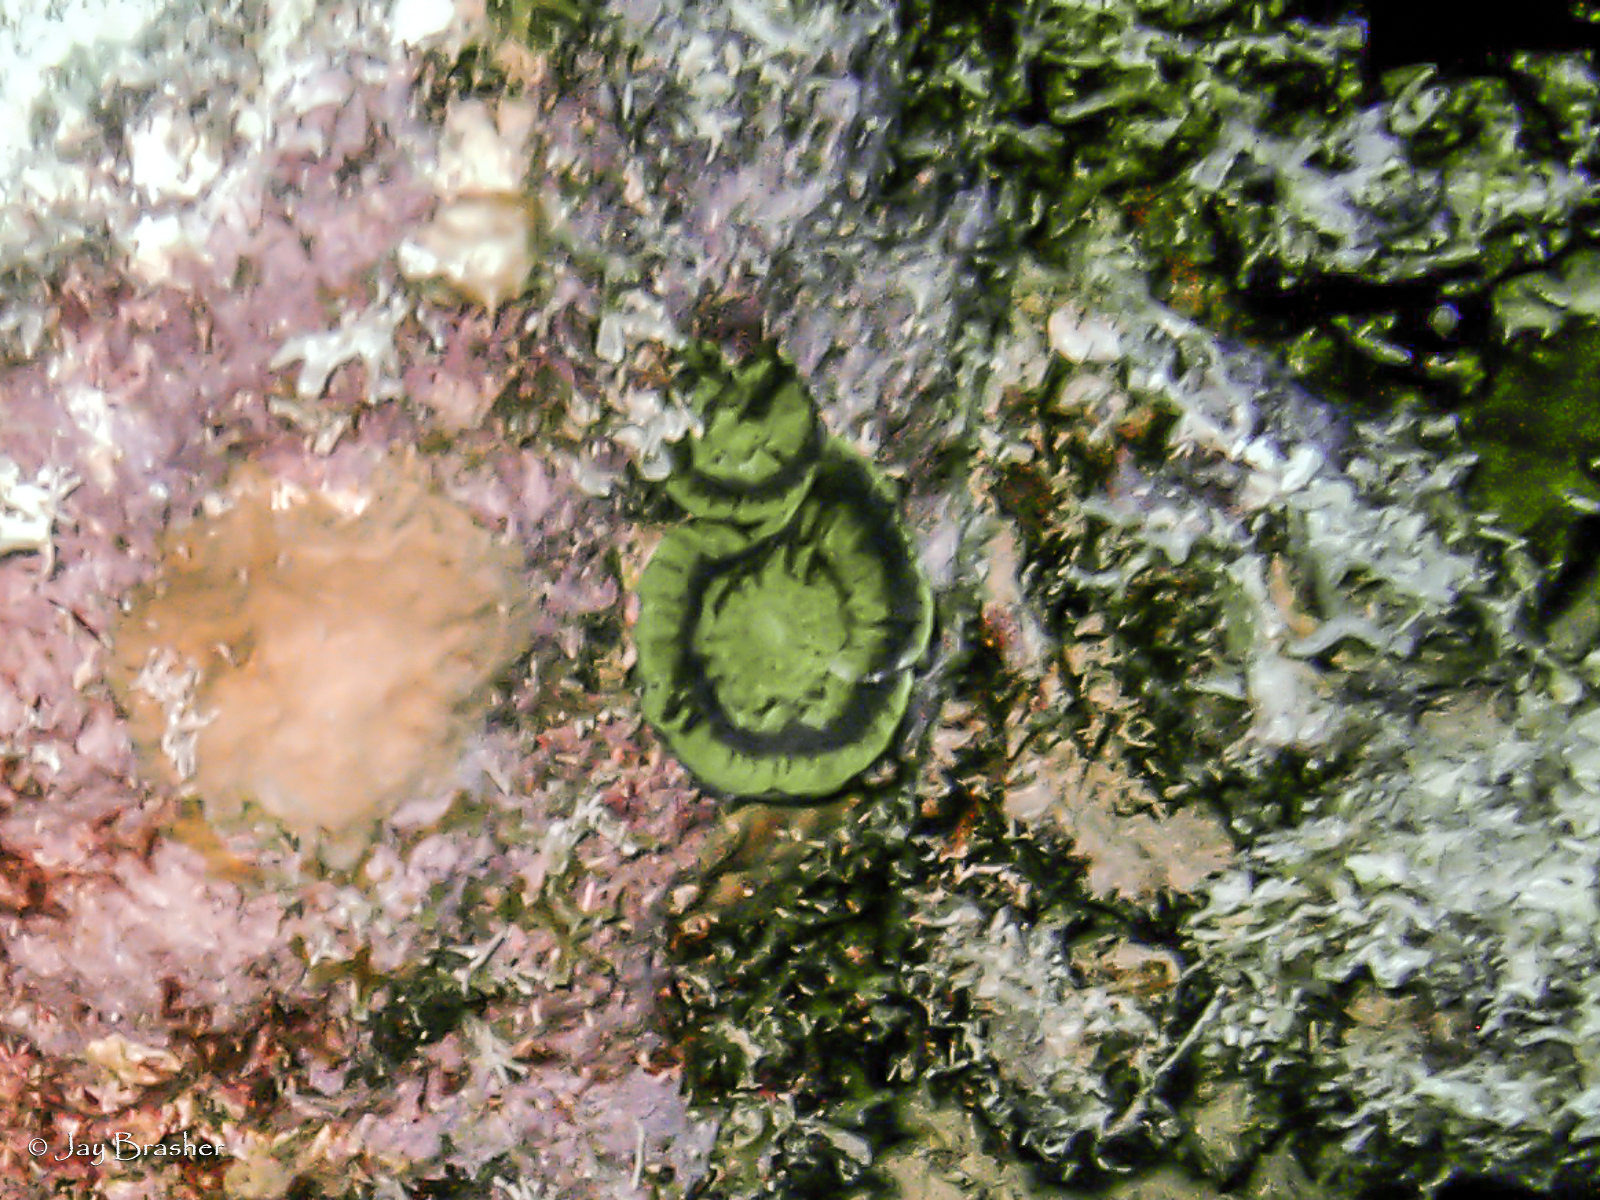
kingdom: Animalia
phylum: Cnidaria
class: Anthozoa
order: Scleractinia
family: Faviidae
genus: Scolymia
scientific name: Scolymia cubensis
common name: Artichoke coral
